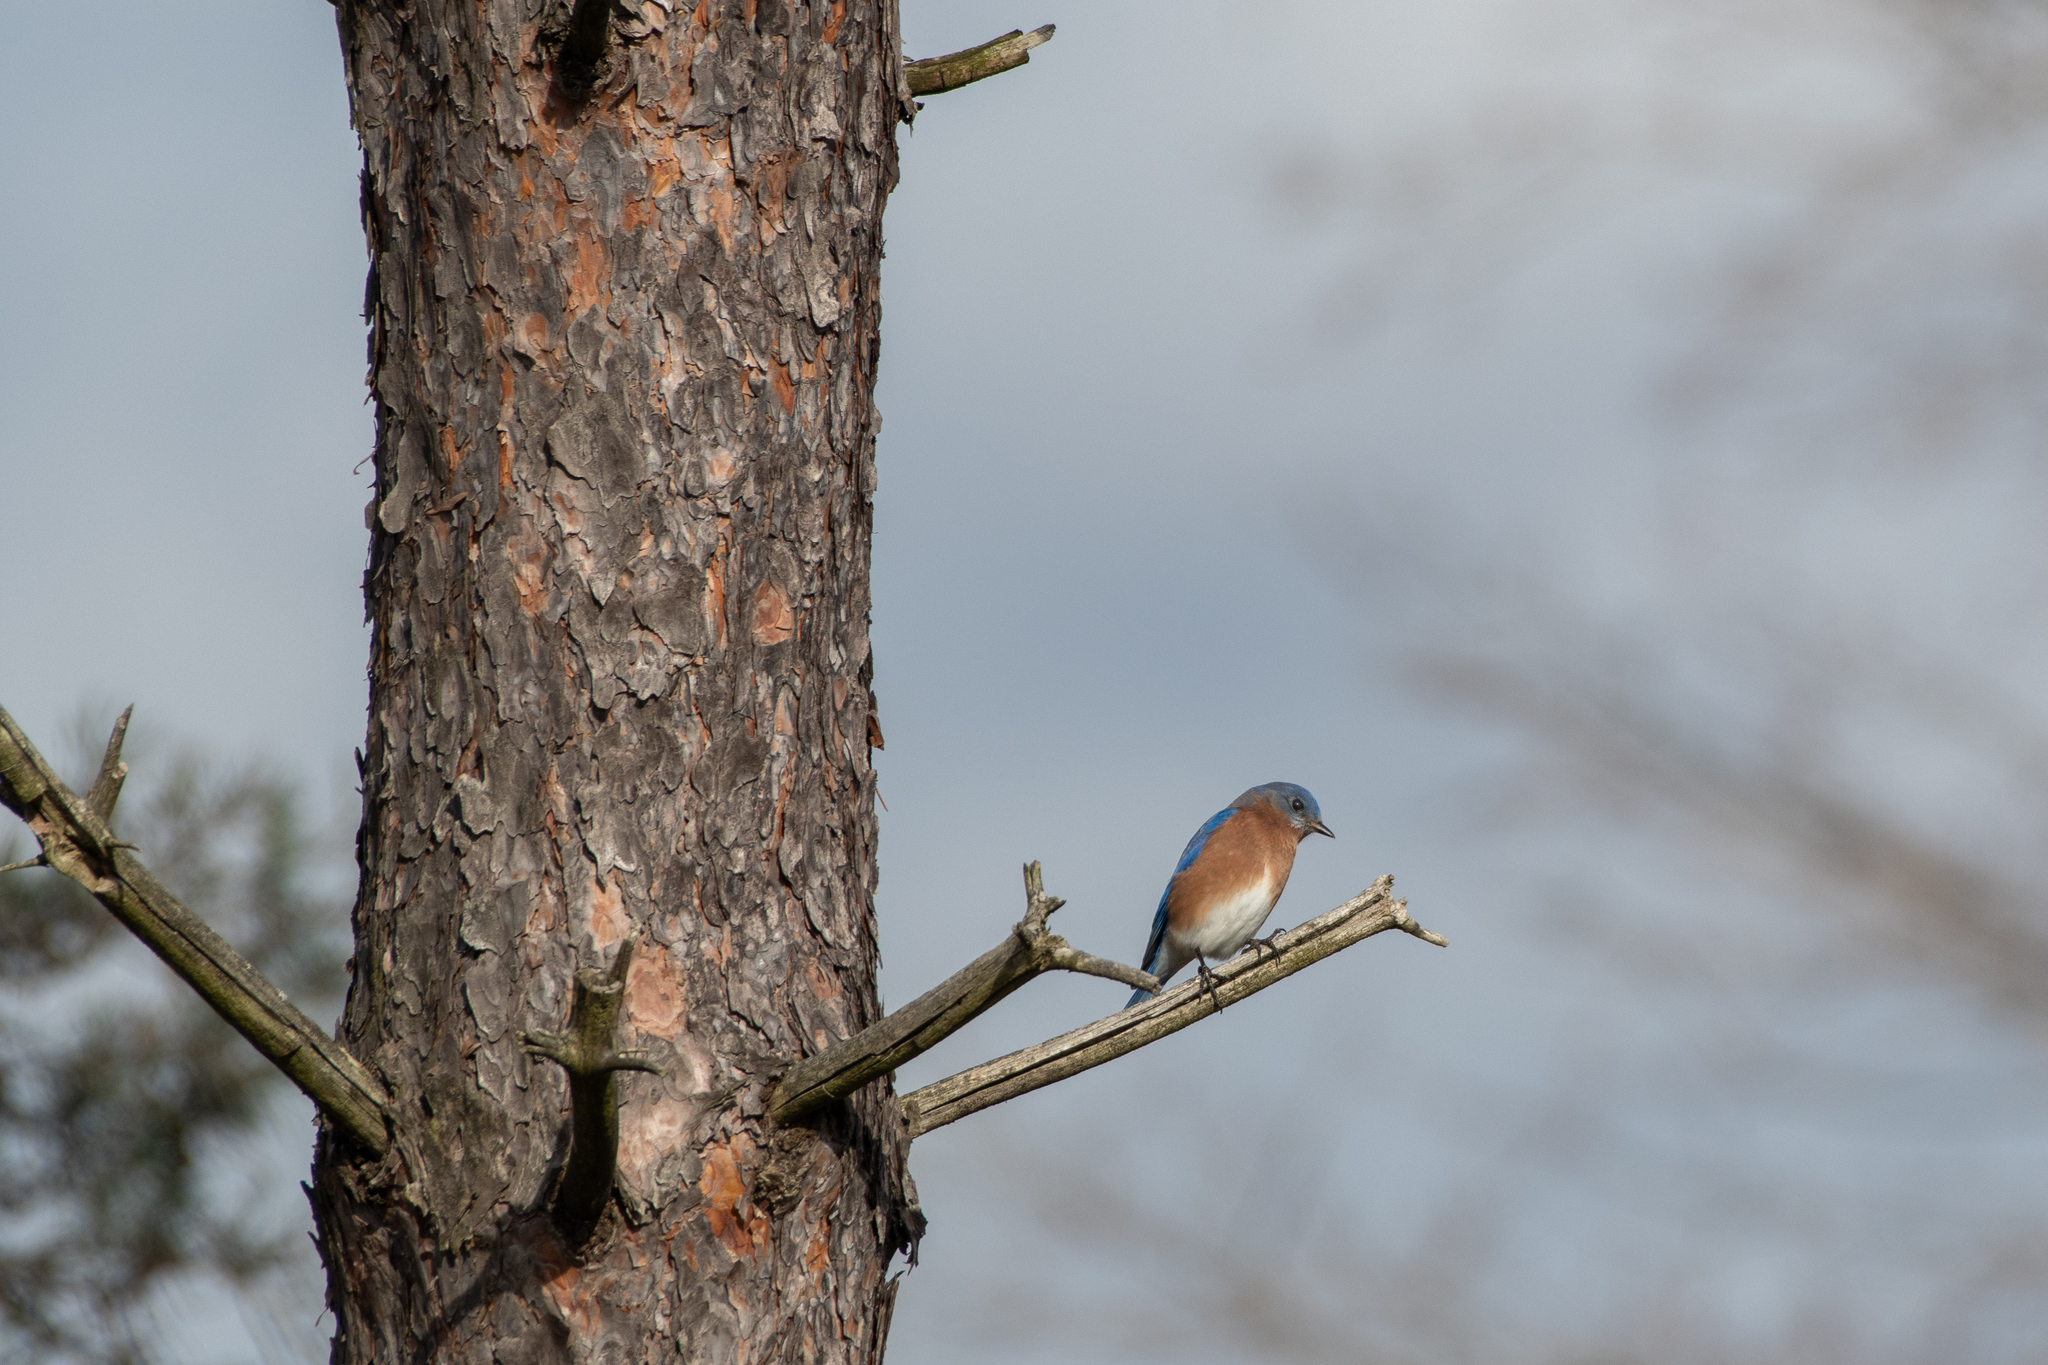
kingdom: Animalia
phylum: Chordata
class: Aves
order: Passeriformes
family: Turdidae
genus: Sialia
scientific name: Sialia sialis
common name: Eastern bluebird
